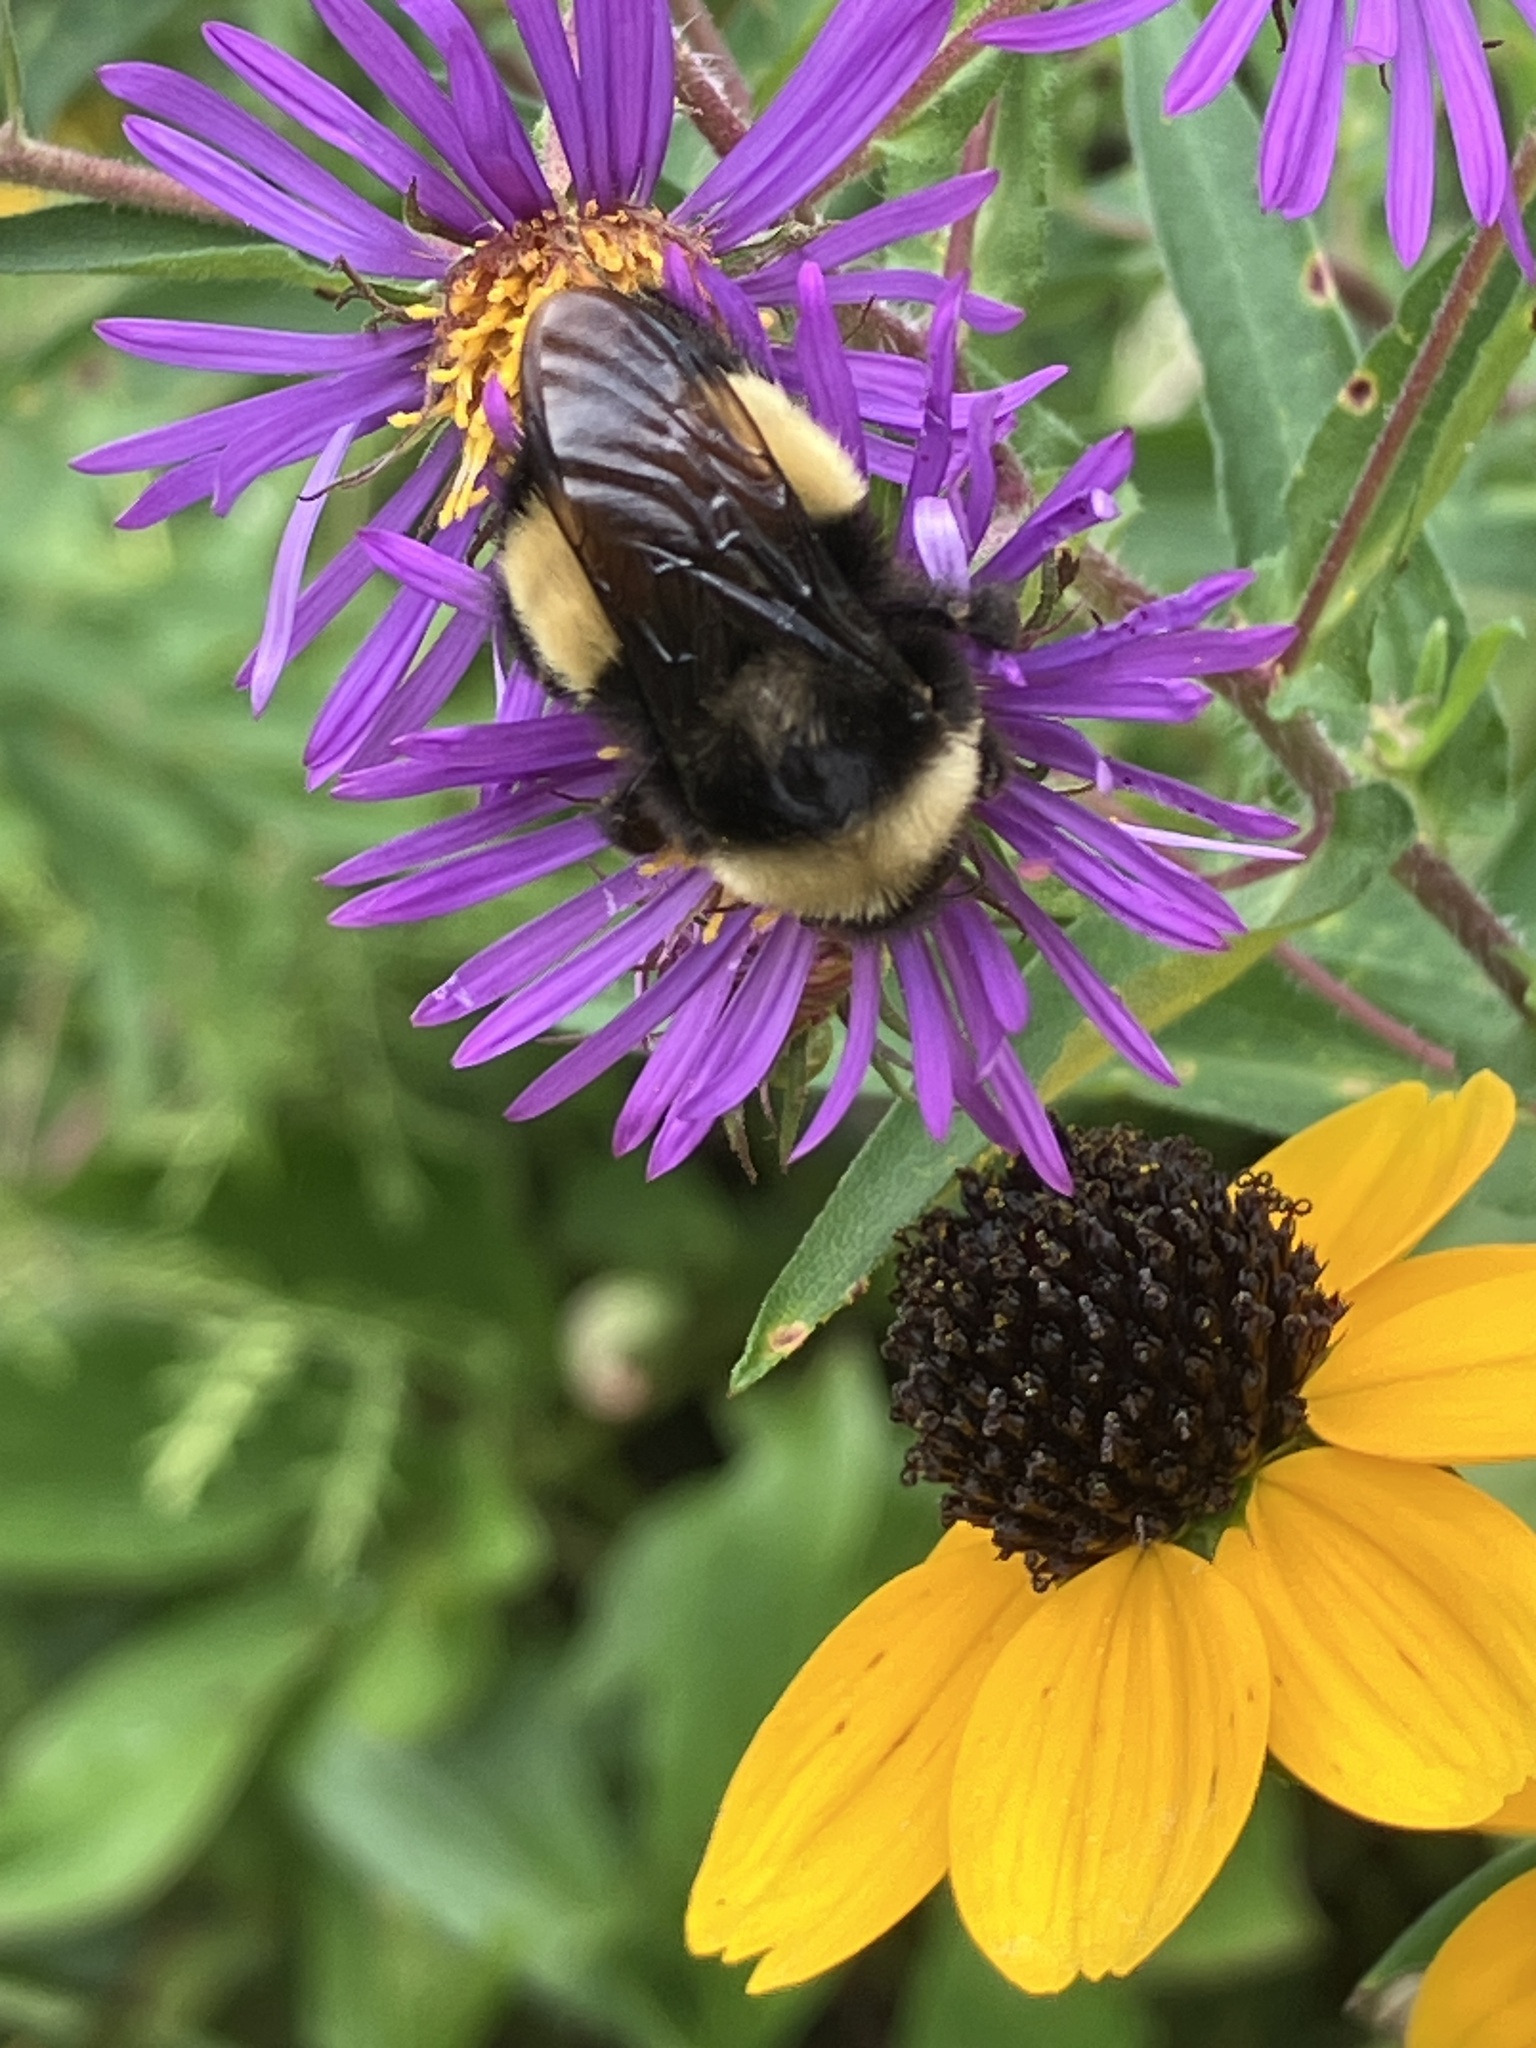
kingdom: Animalia
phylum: Arthropoda
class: Insecta
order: Hymenoptera
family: Apidae
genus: Bombus
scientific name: Bombus terricola
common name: Yellow-banded bumble bee
